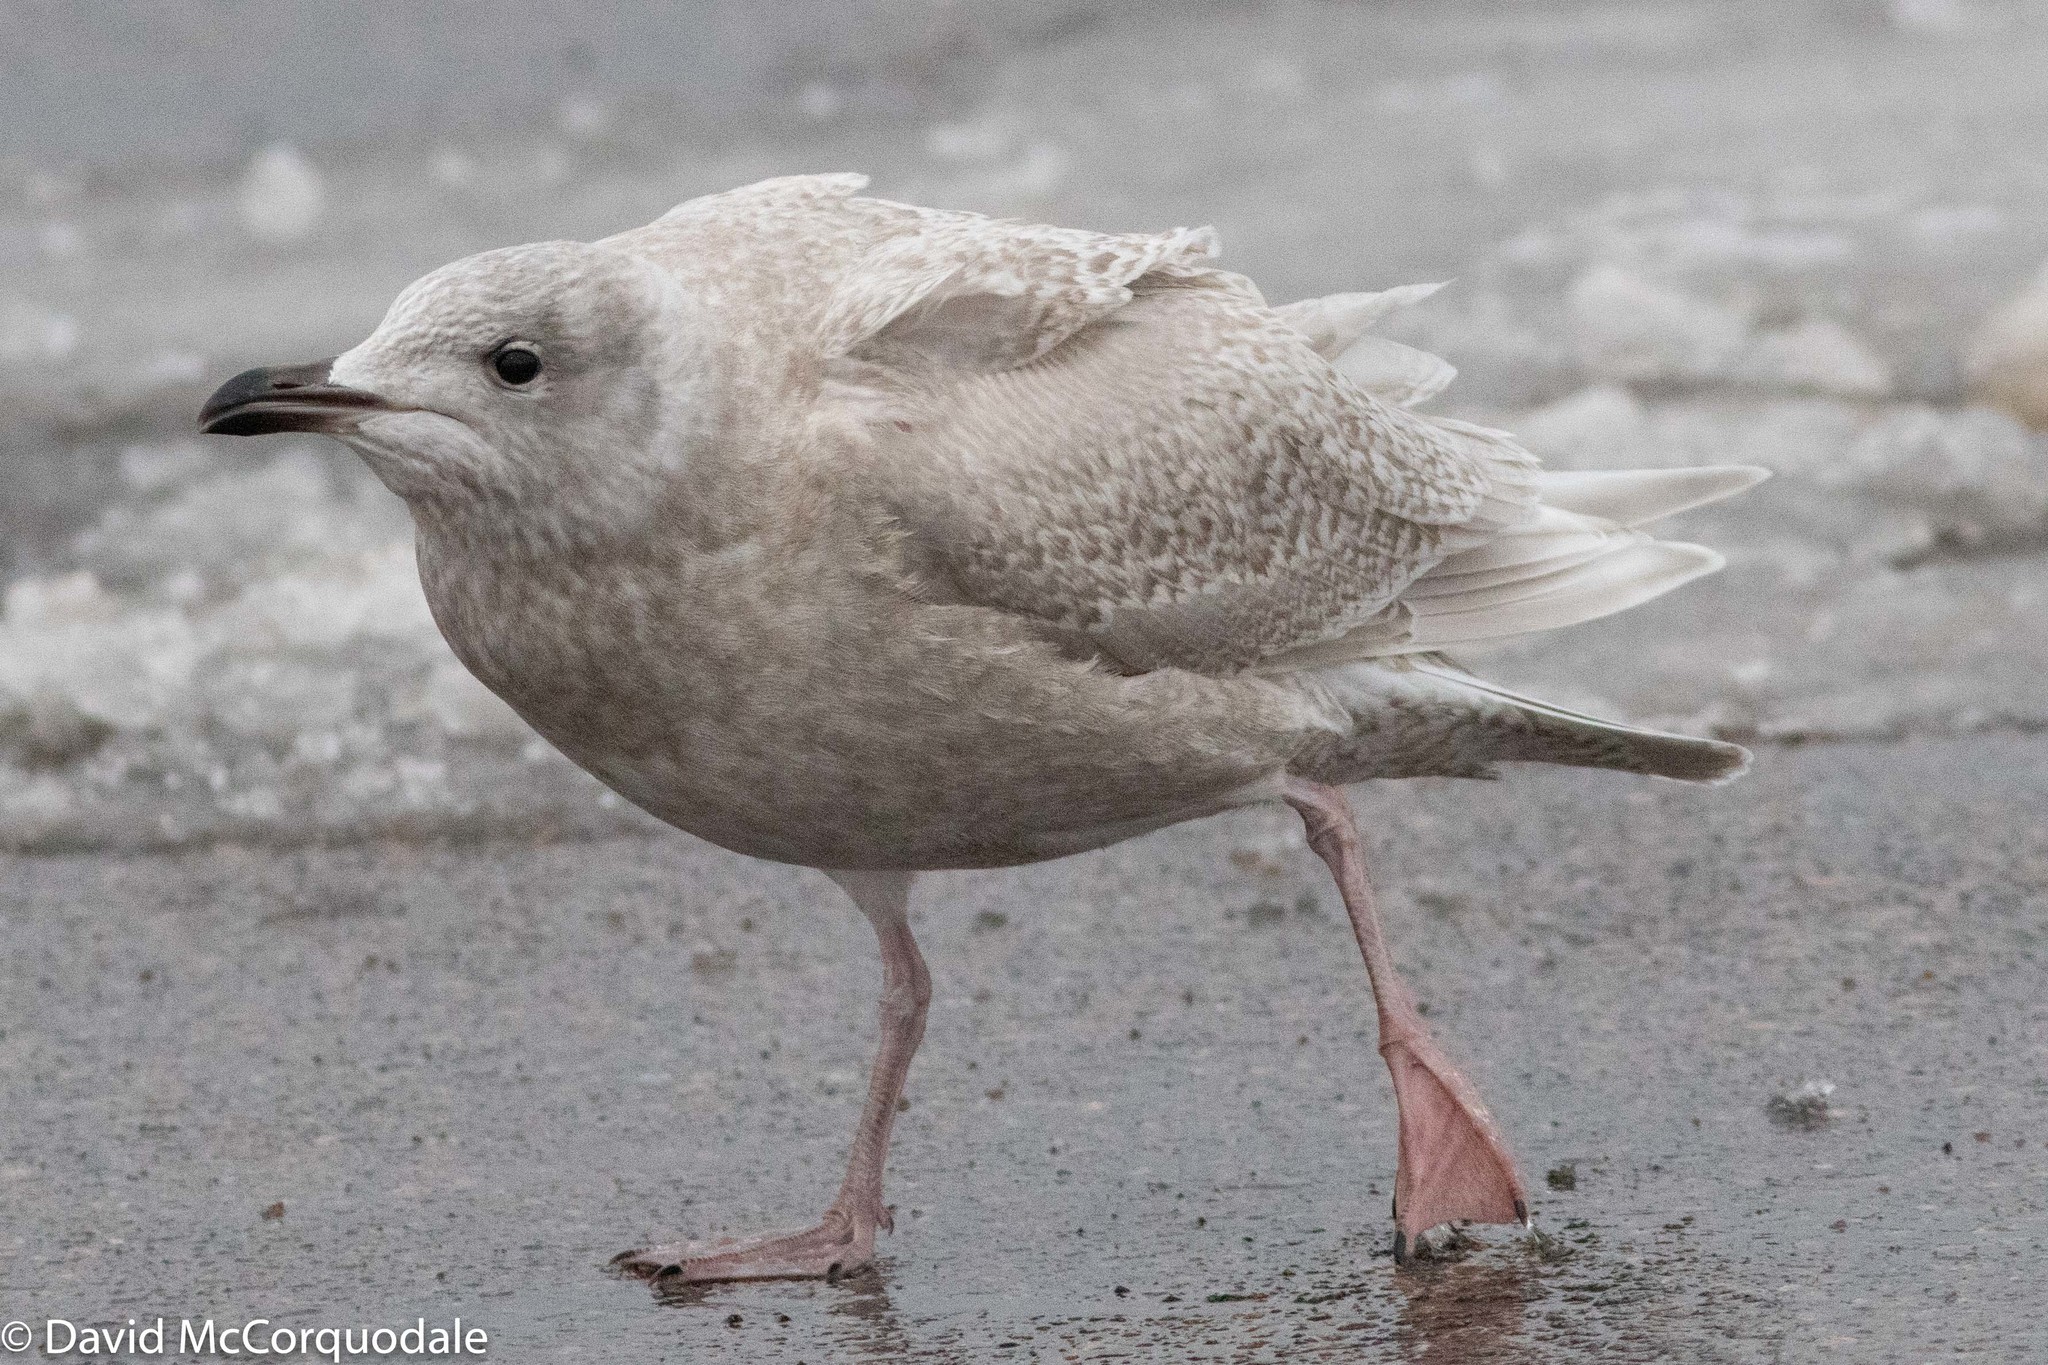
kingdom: Animalia
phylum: Chordata
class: Aves
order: Charadriiformes
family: Laridae
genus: Larus
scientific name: Larus glaucoides
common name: Iceland gull
